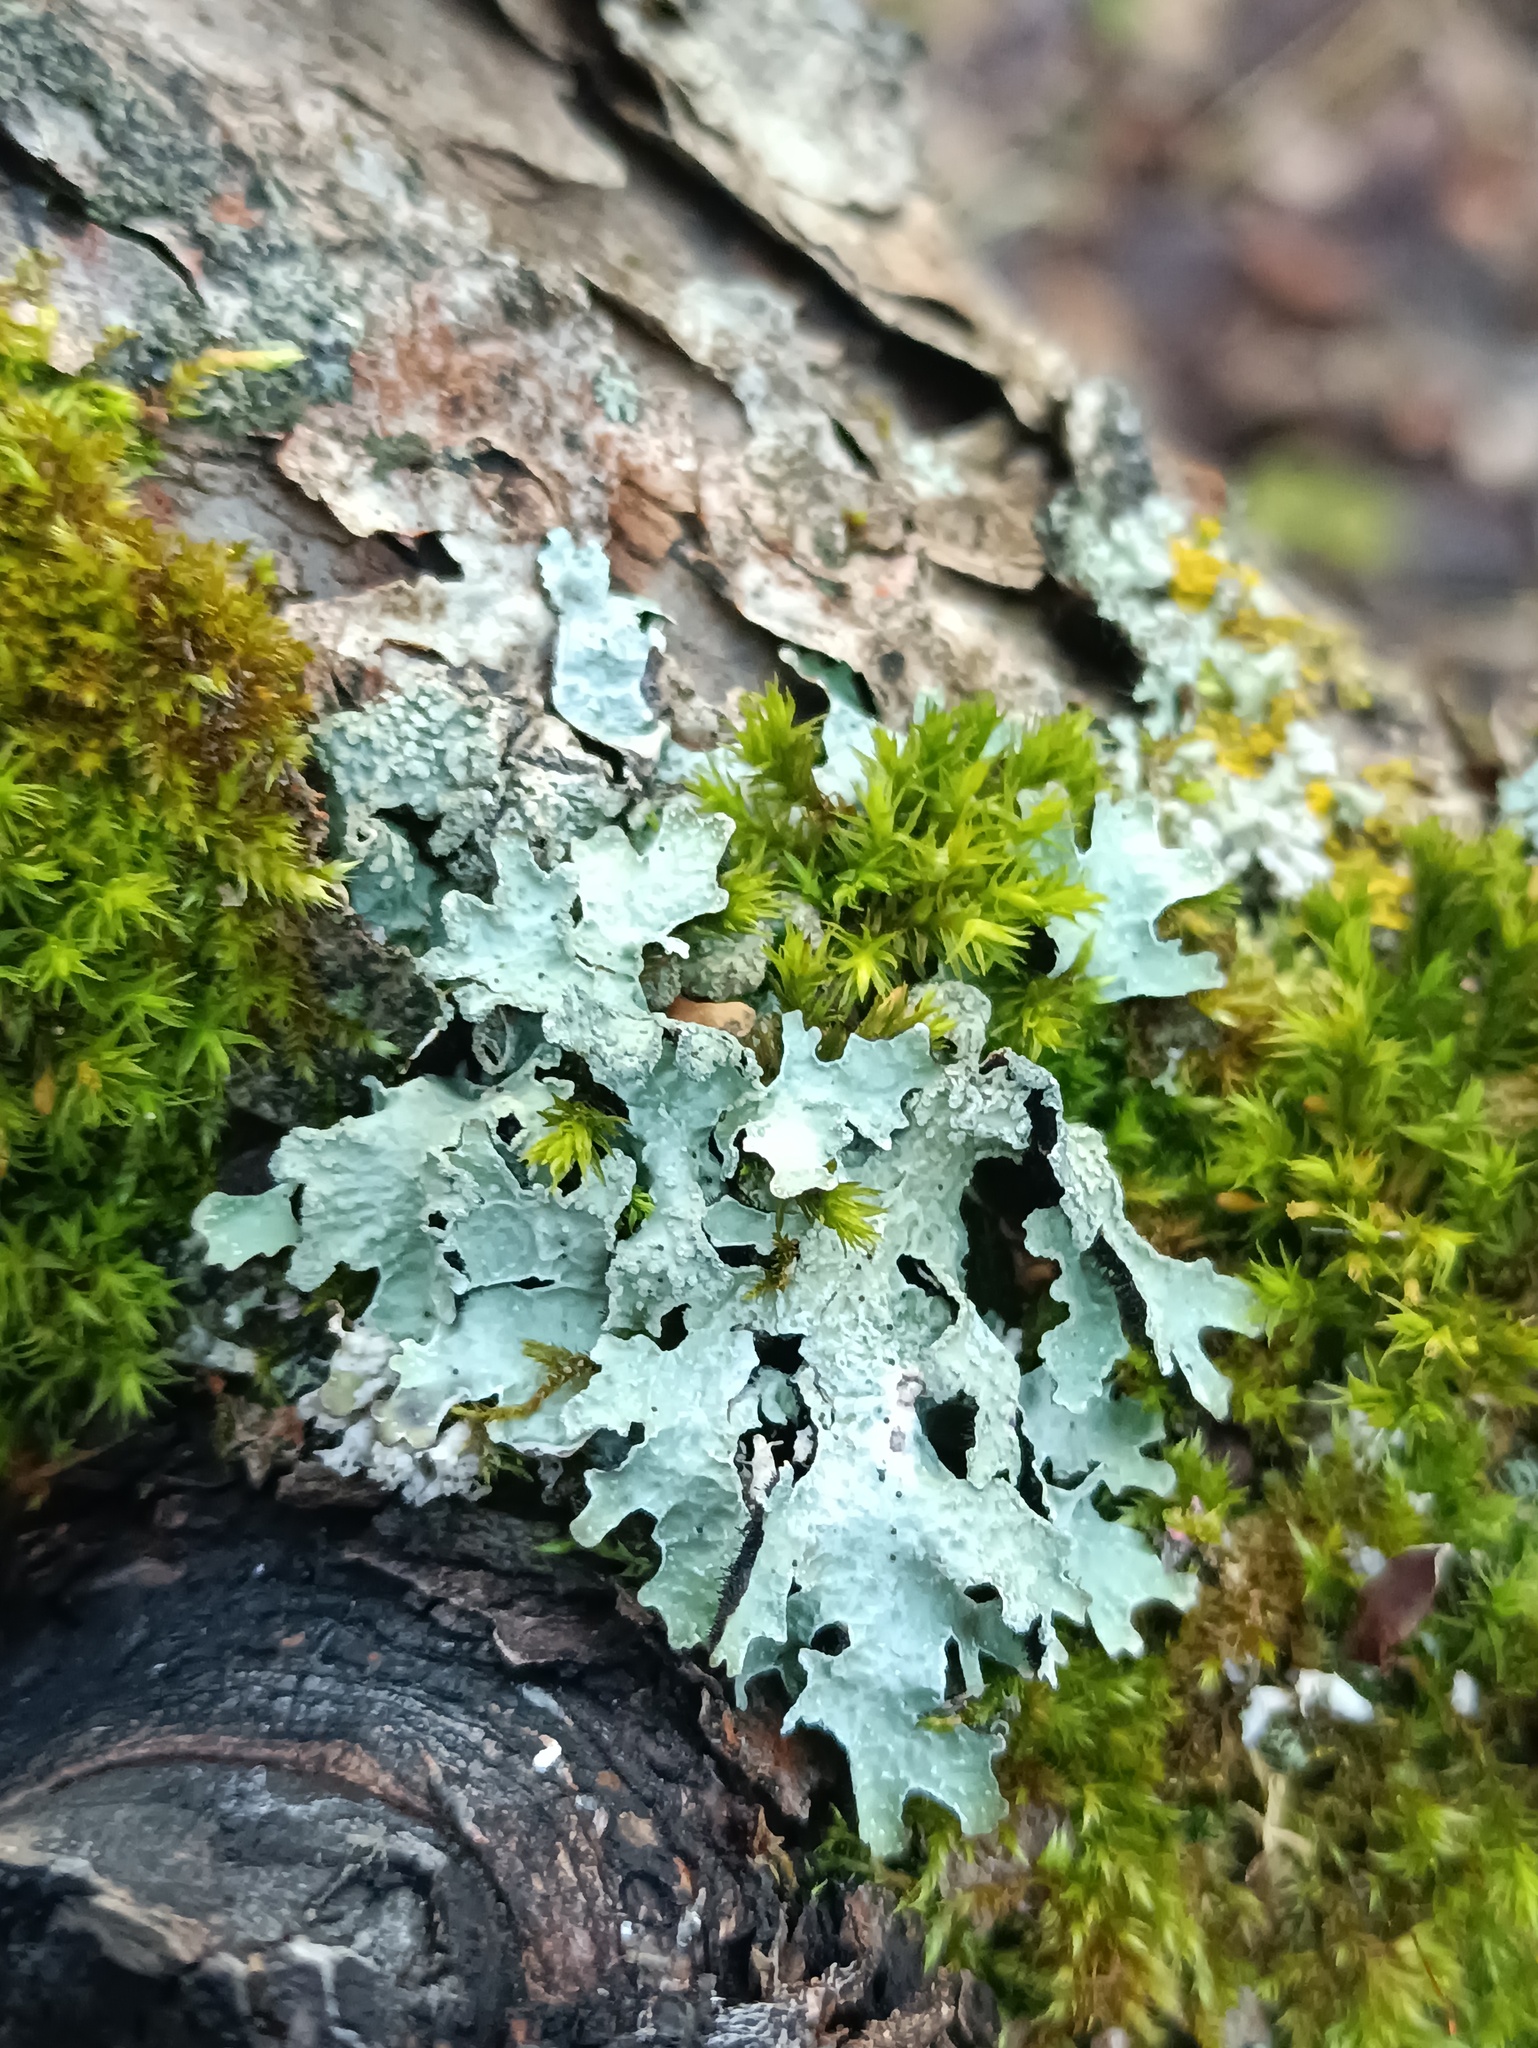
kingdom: Fungi
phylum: Ascomycota
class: Lecanoromycetes
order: Lecanorales
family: Parmeliaceae
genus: Parmelia
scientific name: Parmelia sulcata
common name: Netted shield lichen
